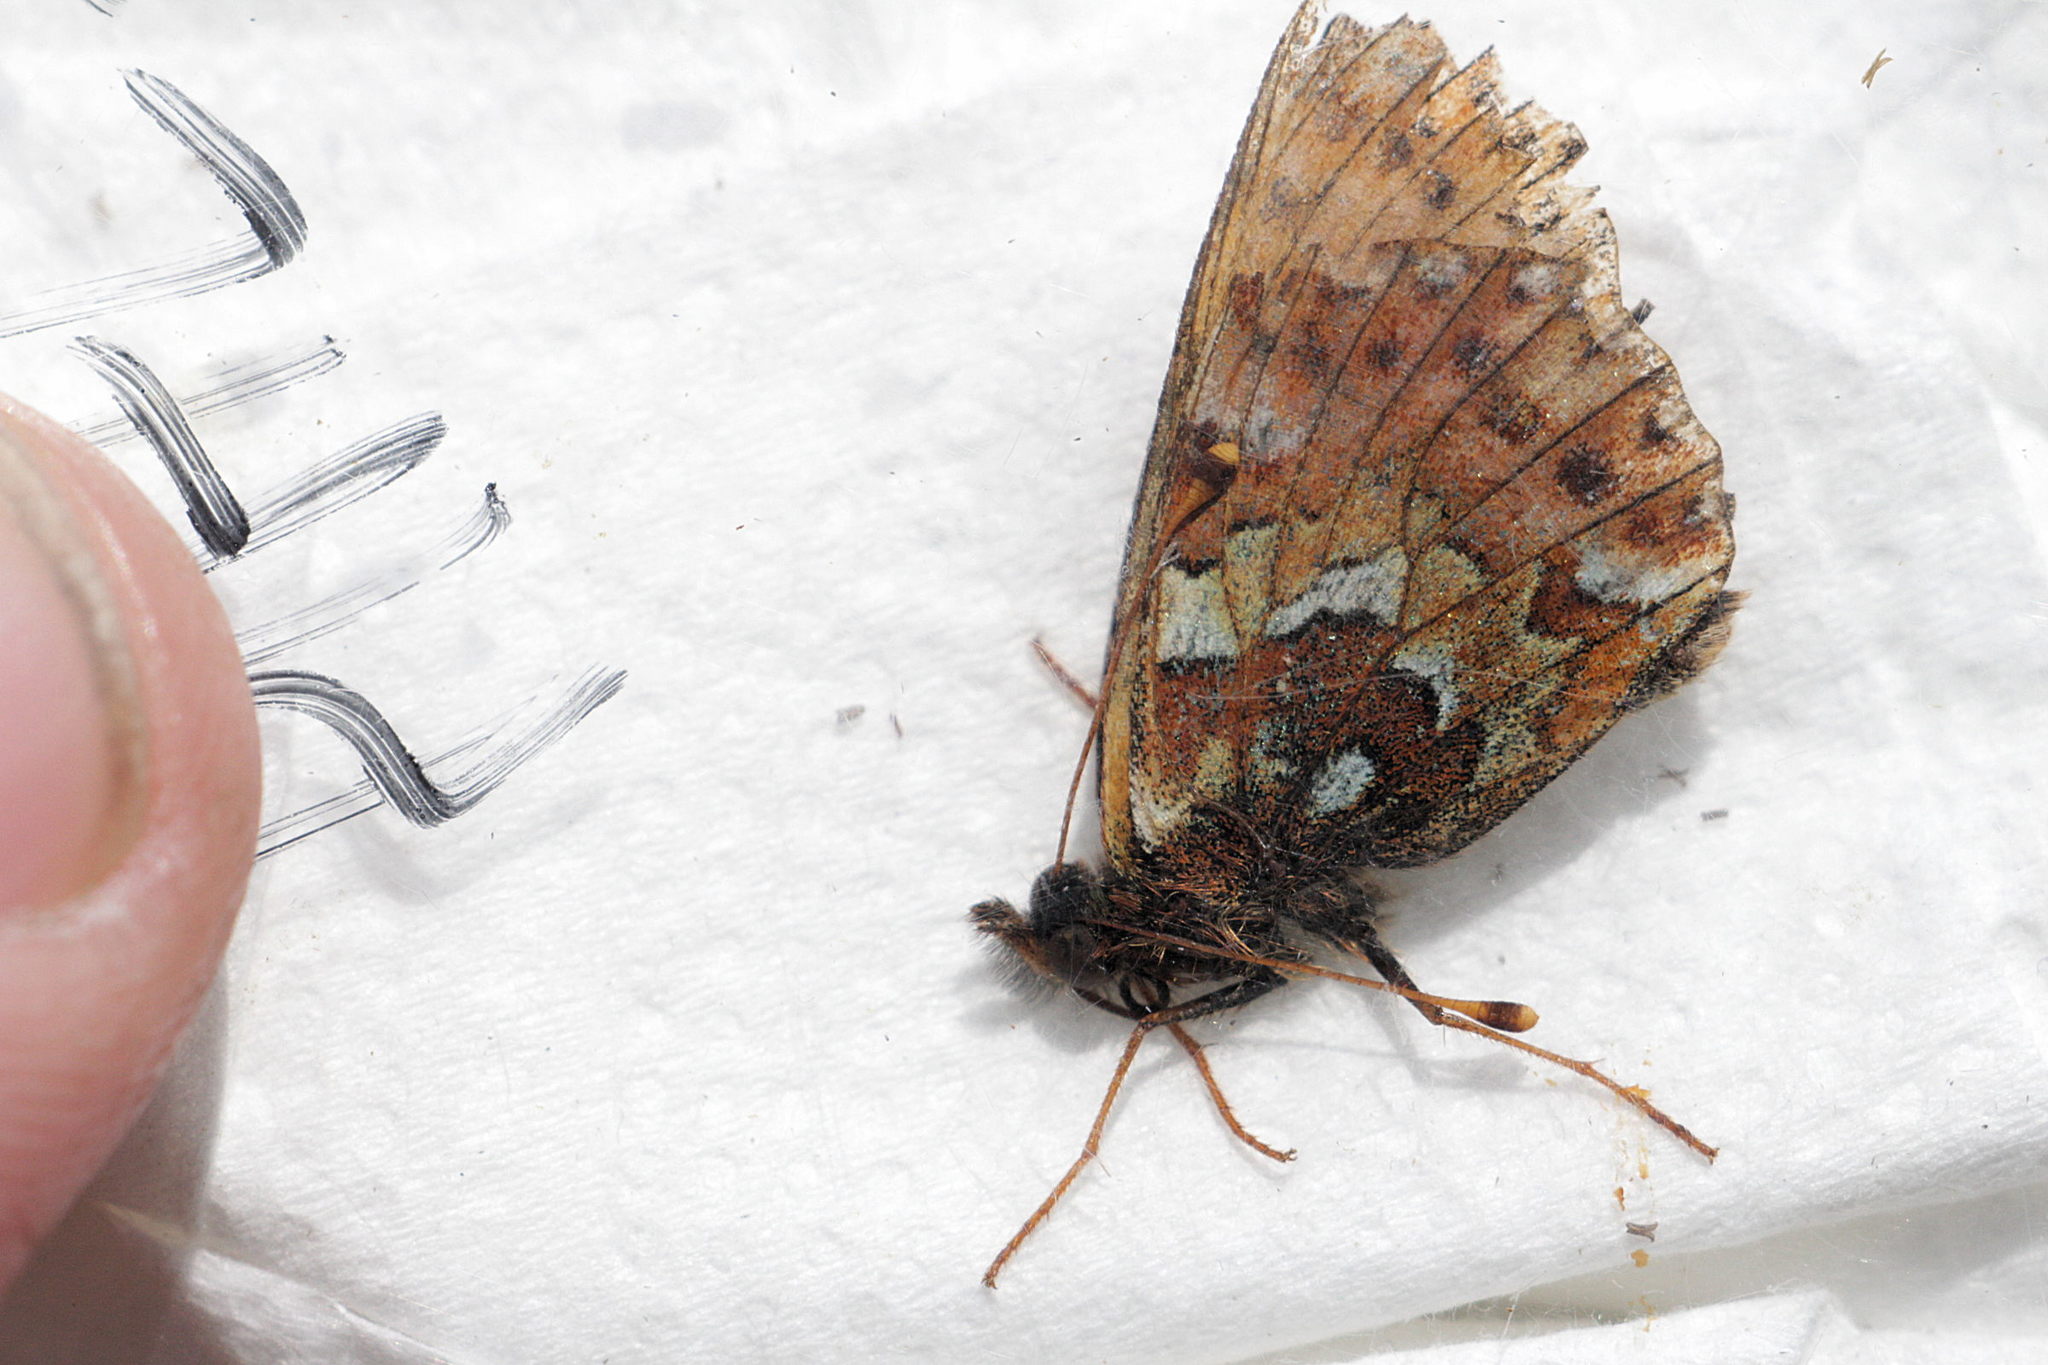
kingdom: Animalia
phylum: Arthropoda
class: Insecta
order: Lepidoptera
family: Nymphalidae
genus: Boloria
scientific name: Boloria aquilonaris
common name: Cranberry fritillary
